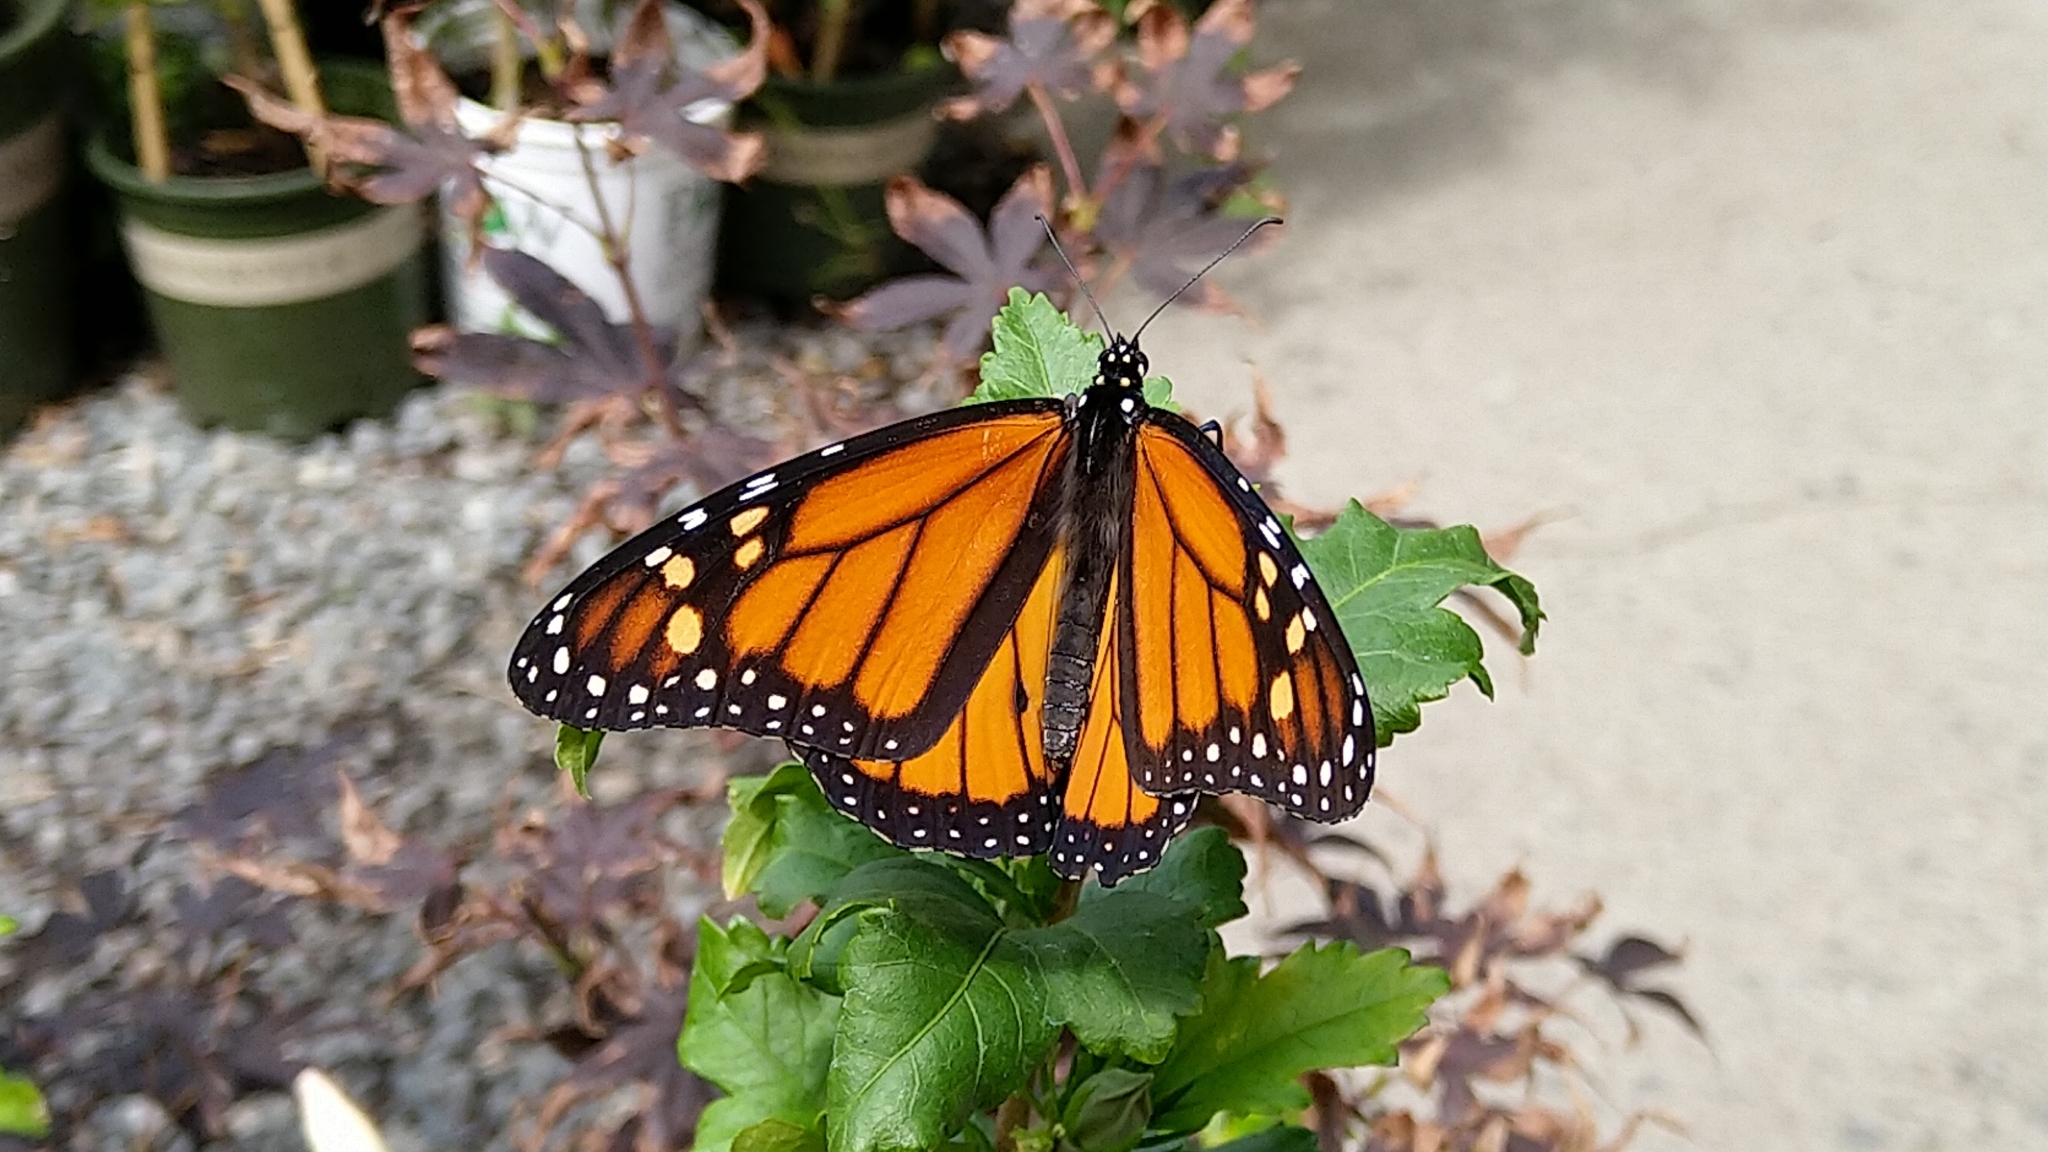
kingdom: Animalia
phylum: Arthropoda
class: Insecta
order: Lepidoptera
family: Nymphalidae
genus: Danaus
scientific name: Danaus plexippus
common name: Monarch
